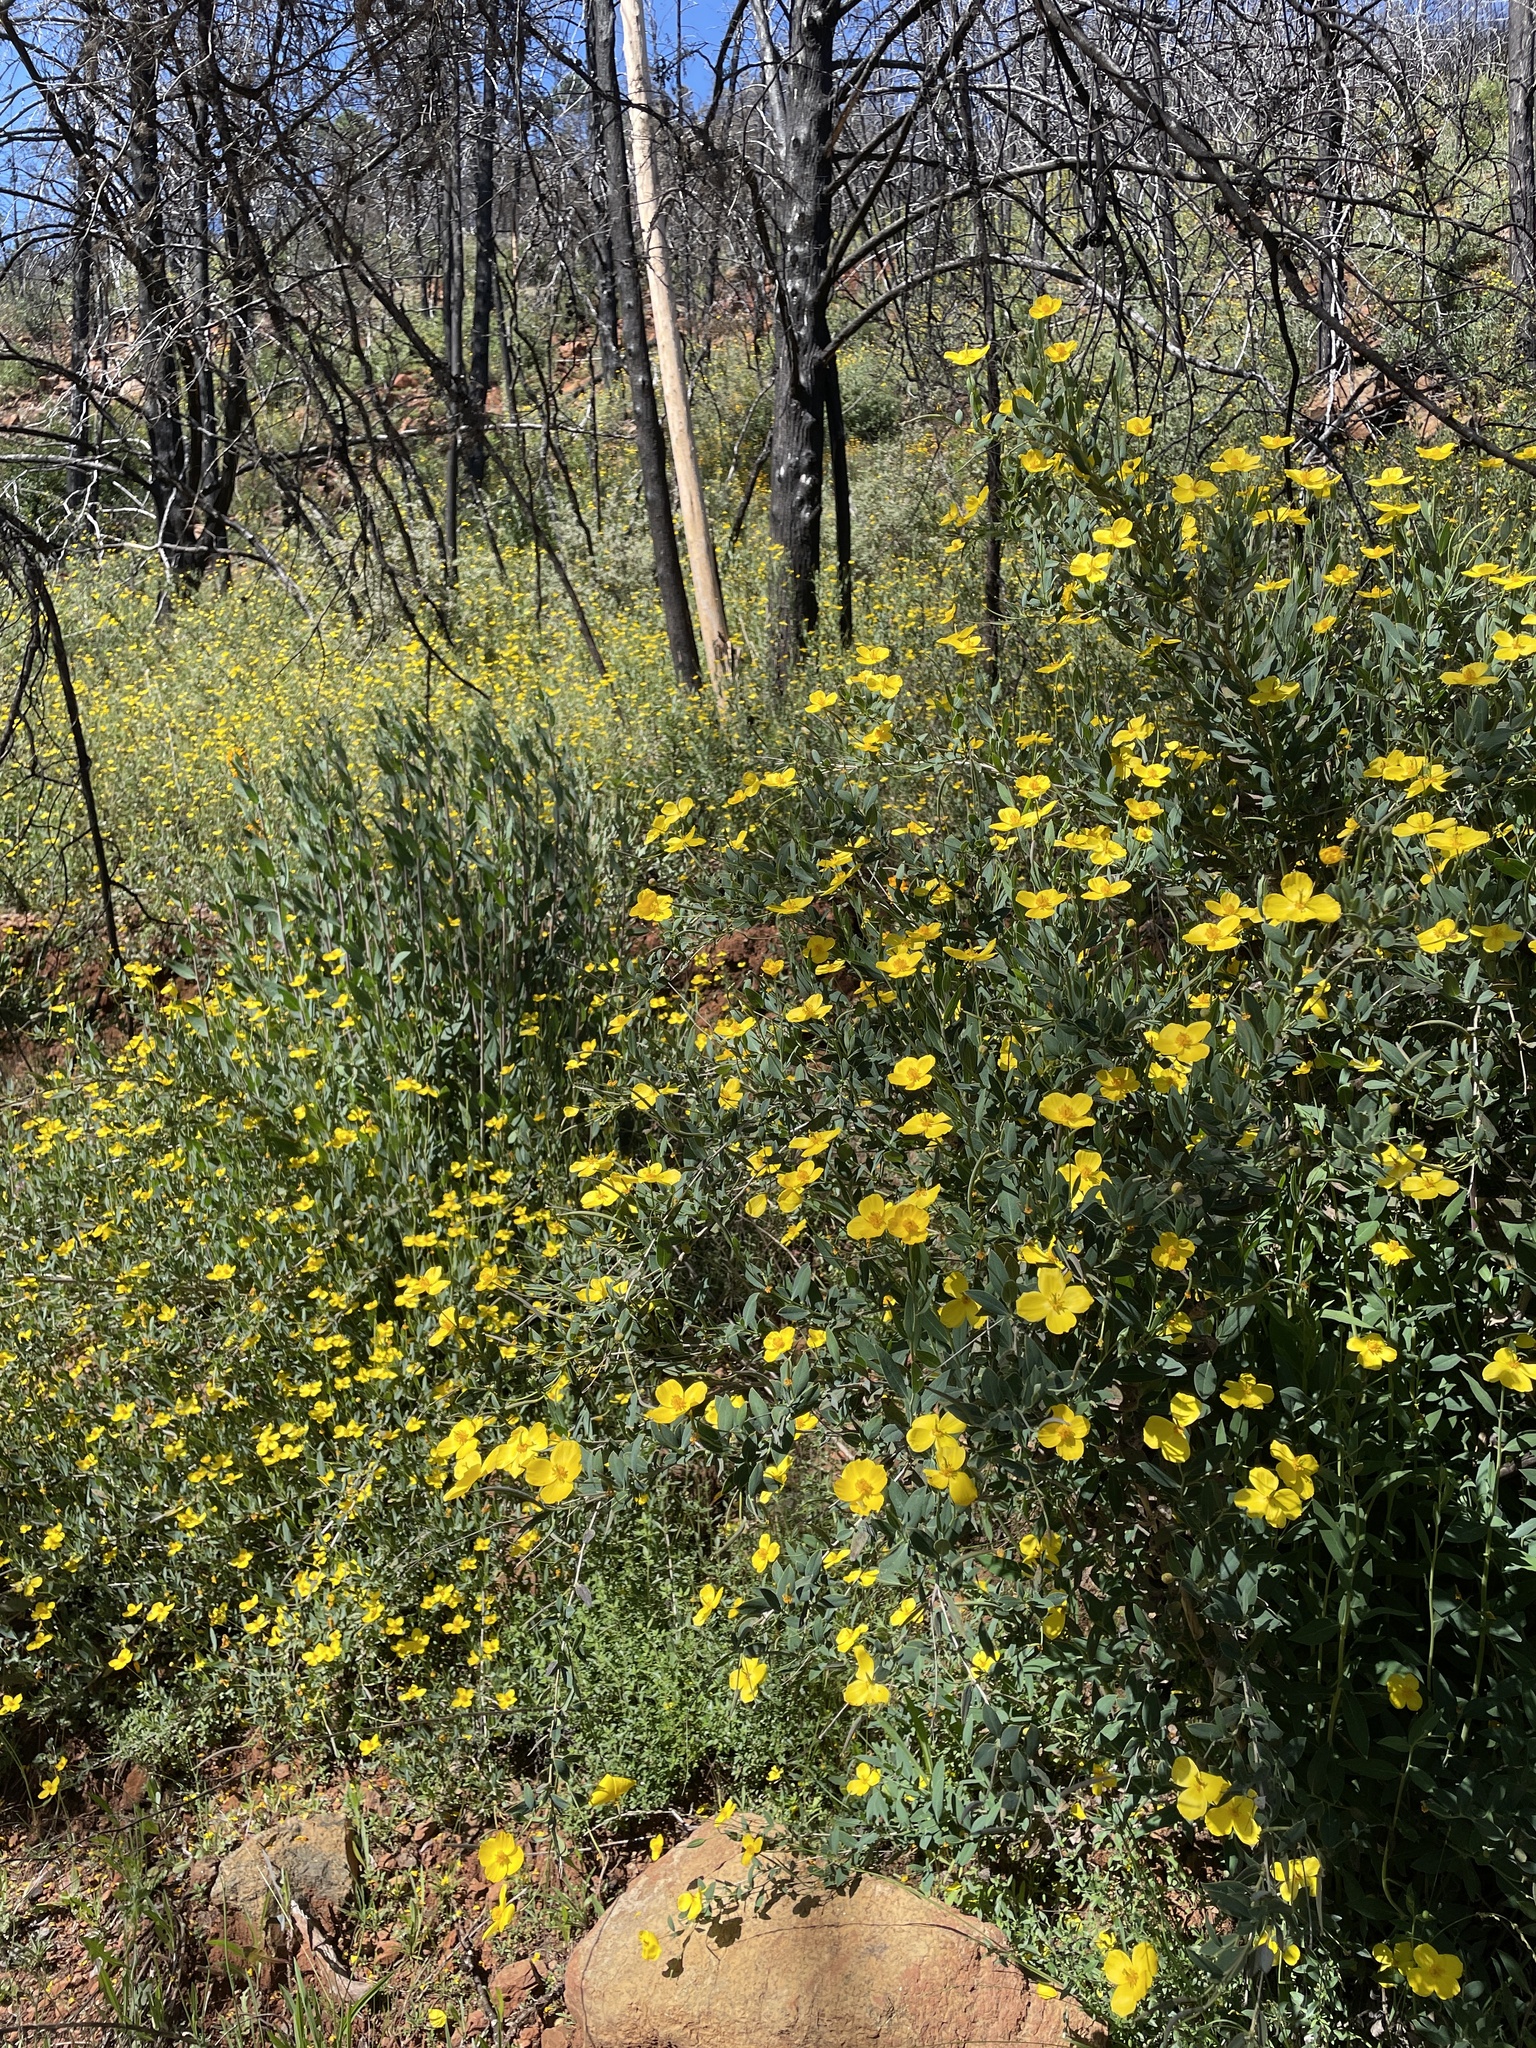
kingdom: Plantae
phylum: Tracheophyta
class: Magnoliopsida
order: Ranunculales
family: Papaveraceae
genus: Dendromecon
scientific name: Dendromecon rigida
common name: Tree poppy
